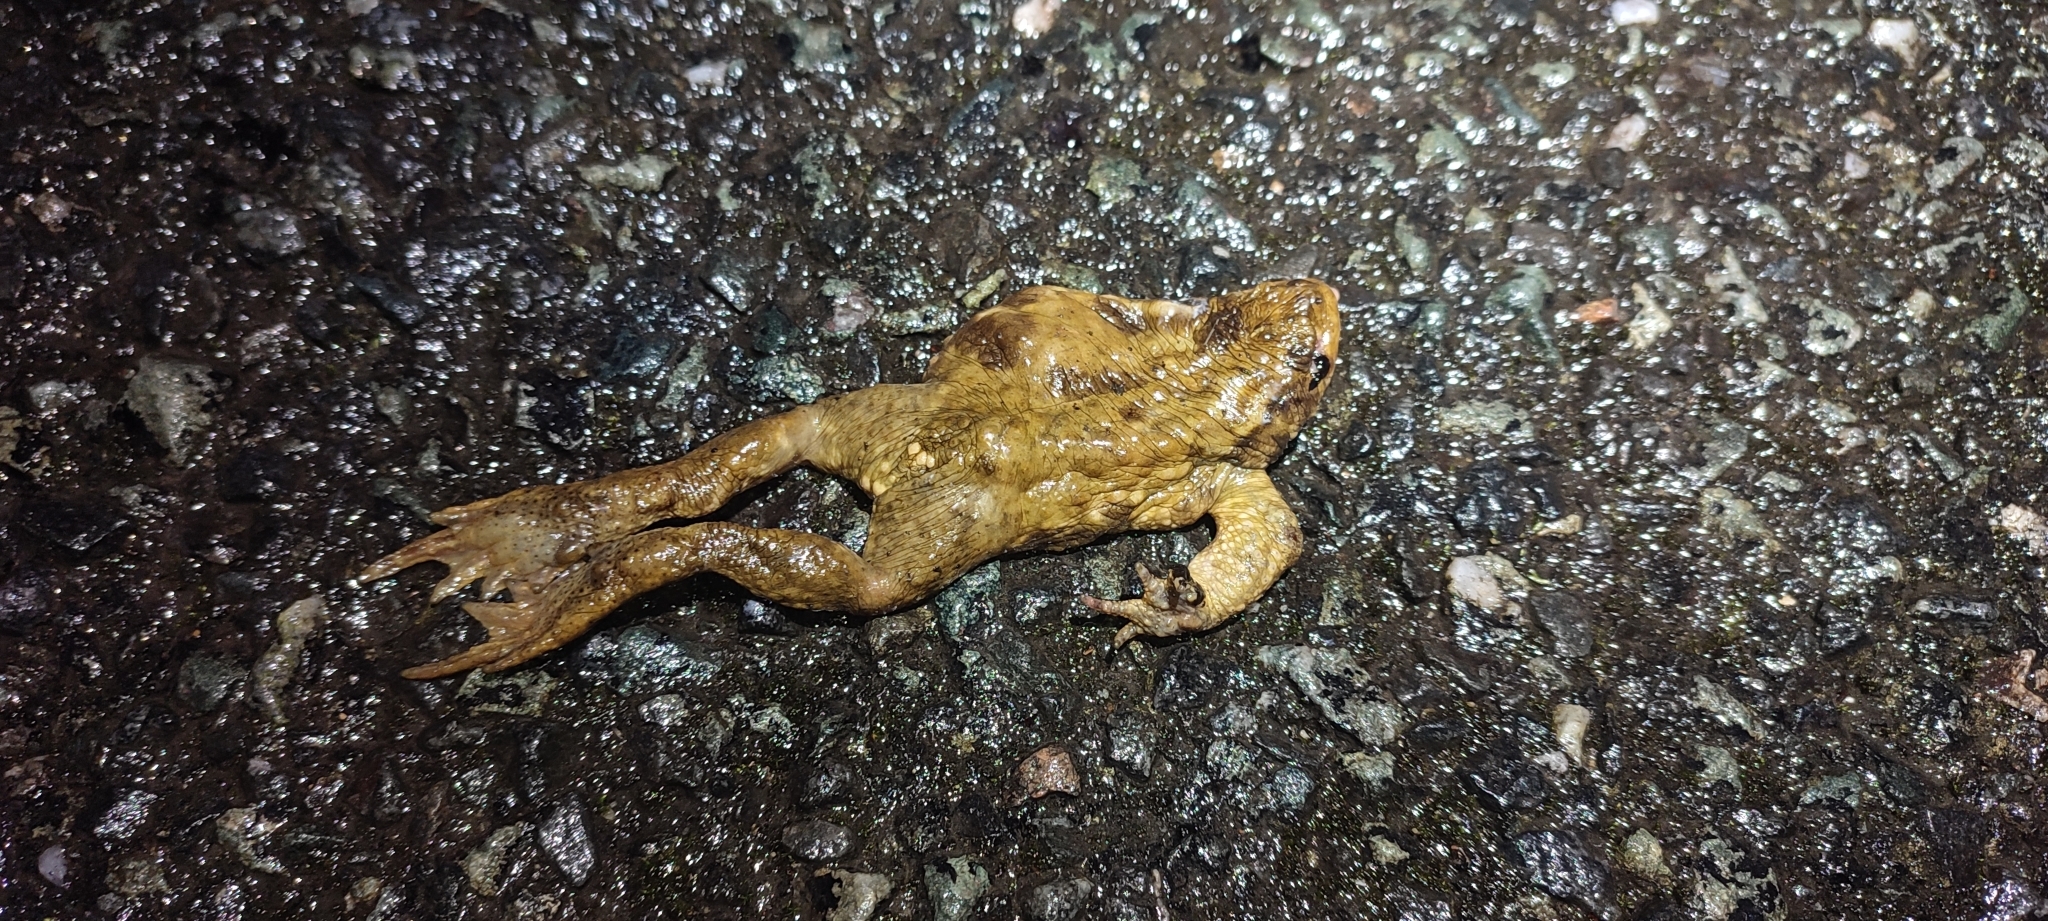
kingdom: Animalia
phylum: Chordata
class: Amphibia
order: Anura
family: Bufonidae
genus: Bufo
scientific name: Bufo spinosus
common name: Western common toad
